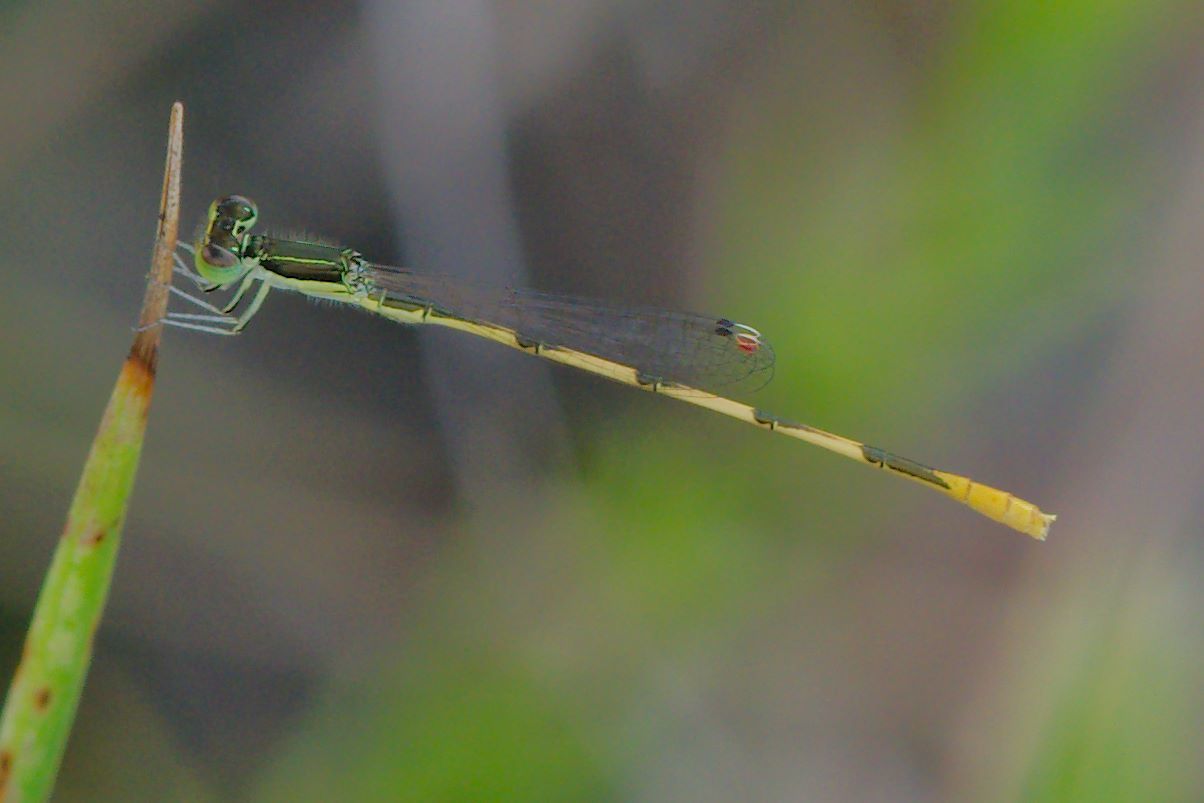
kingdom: Animalia
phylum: Arthropoda
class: Insecta
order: Odonata
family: Coenagrionidae
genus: Ischnura
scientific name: Ischnura hastata
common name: Citrine forktail
